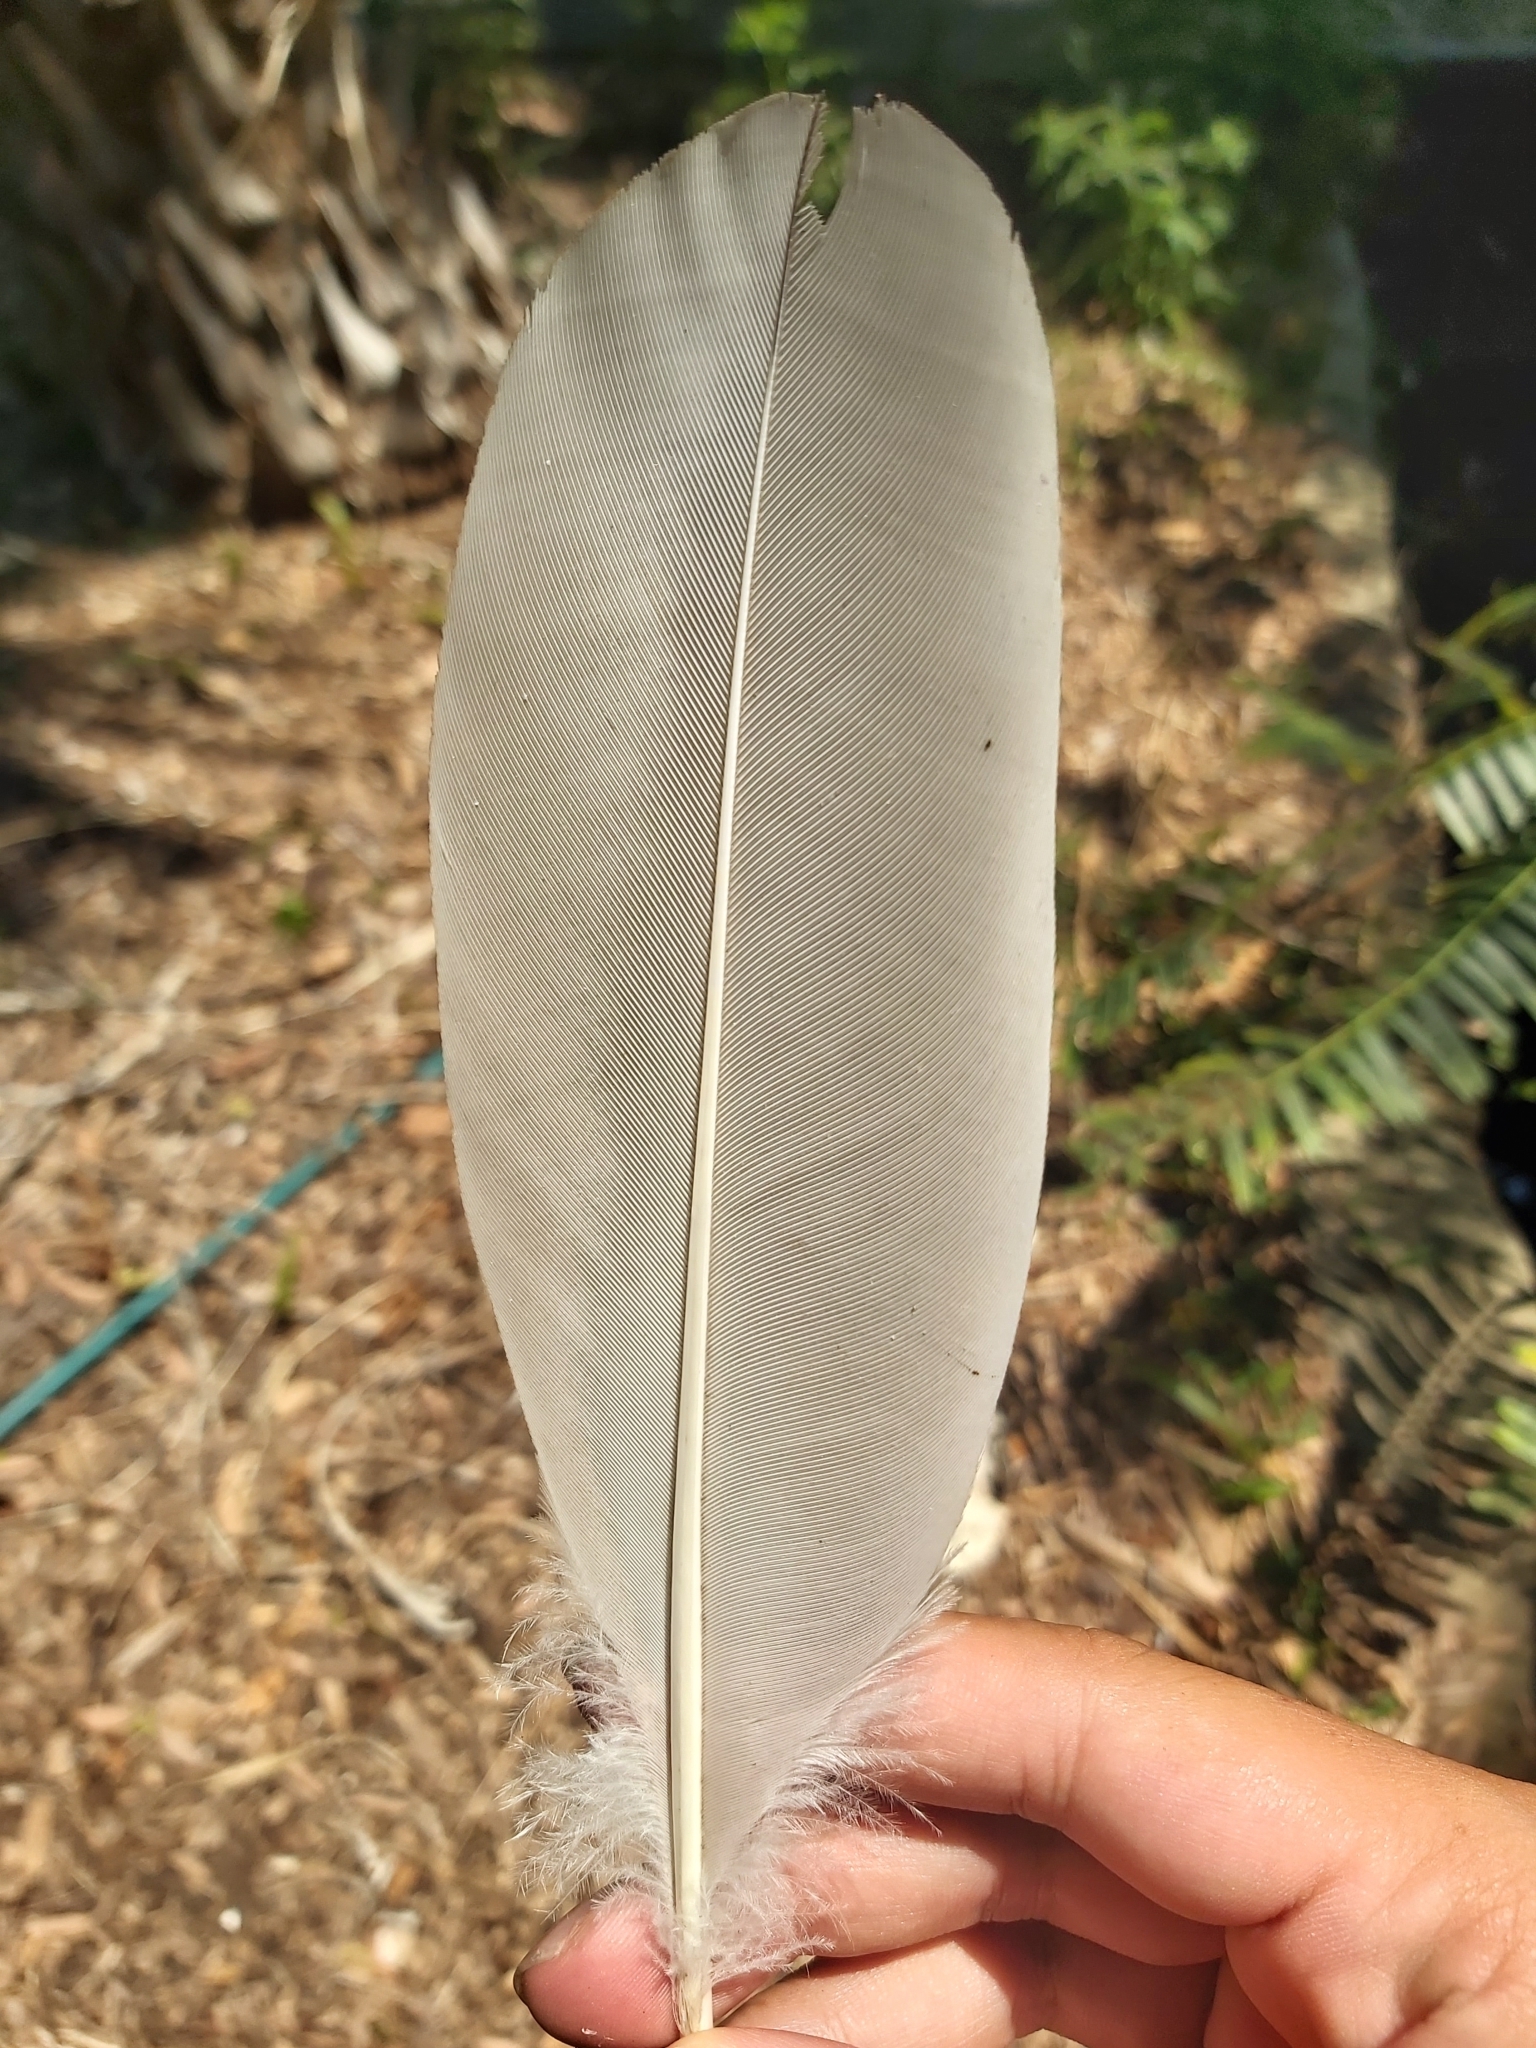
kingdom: Animalia
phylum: Chordata
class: Aves
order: Pelecaniformes
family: Threskiornithidae
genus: Threskiornis
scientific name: Threskiornis molucca
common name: Australian white ibis
